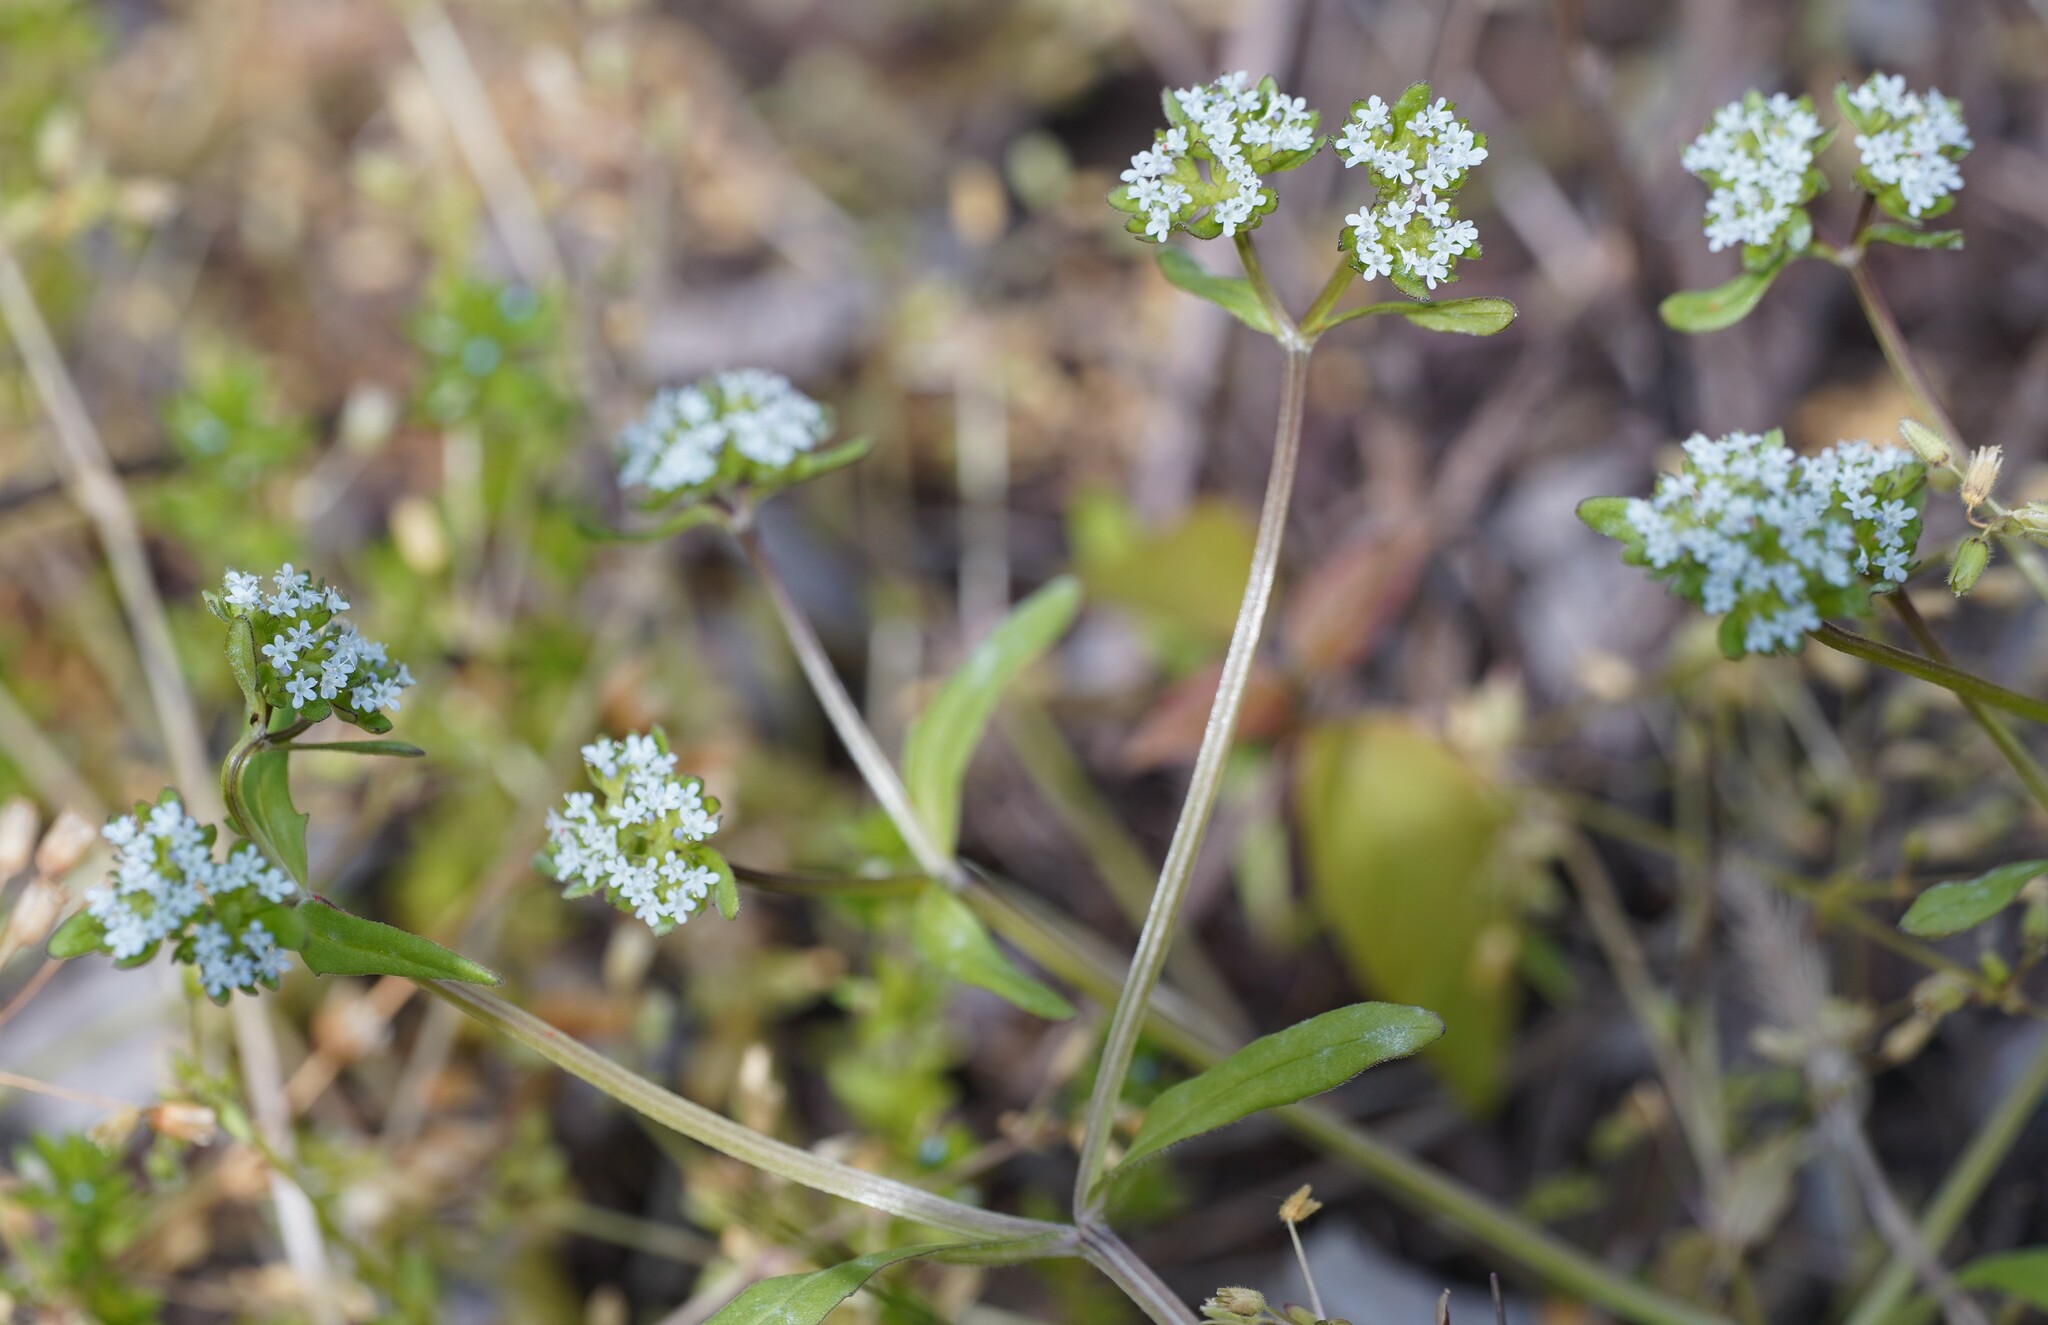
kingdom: Plantae
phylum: Tracheophyta
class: Magnoliopsida
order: Dipsacales
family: Caprifoliaceae
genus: Valerianella
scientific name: Valerianella locusta
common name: Common cornsalad
